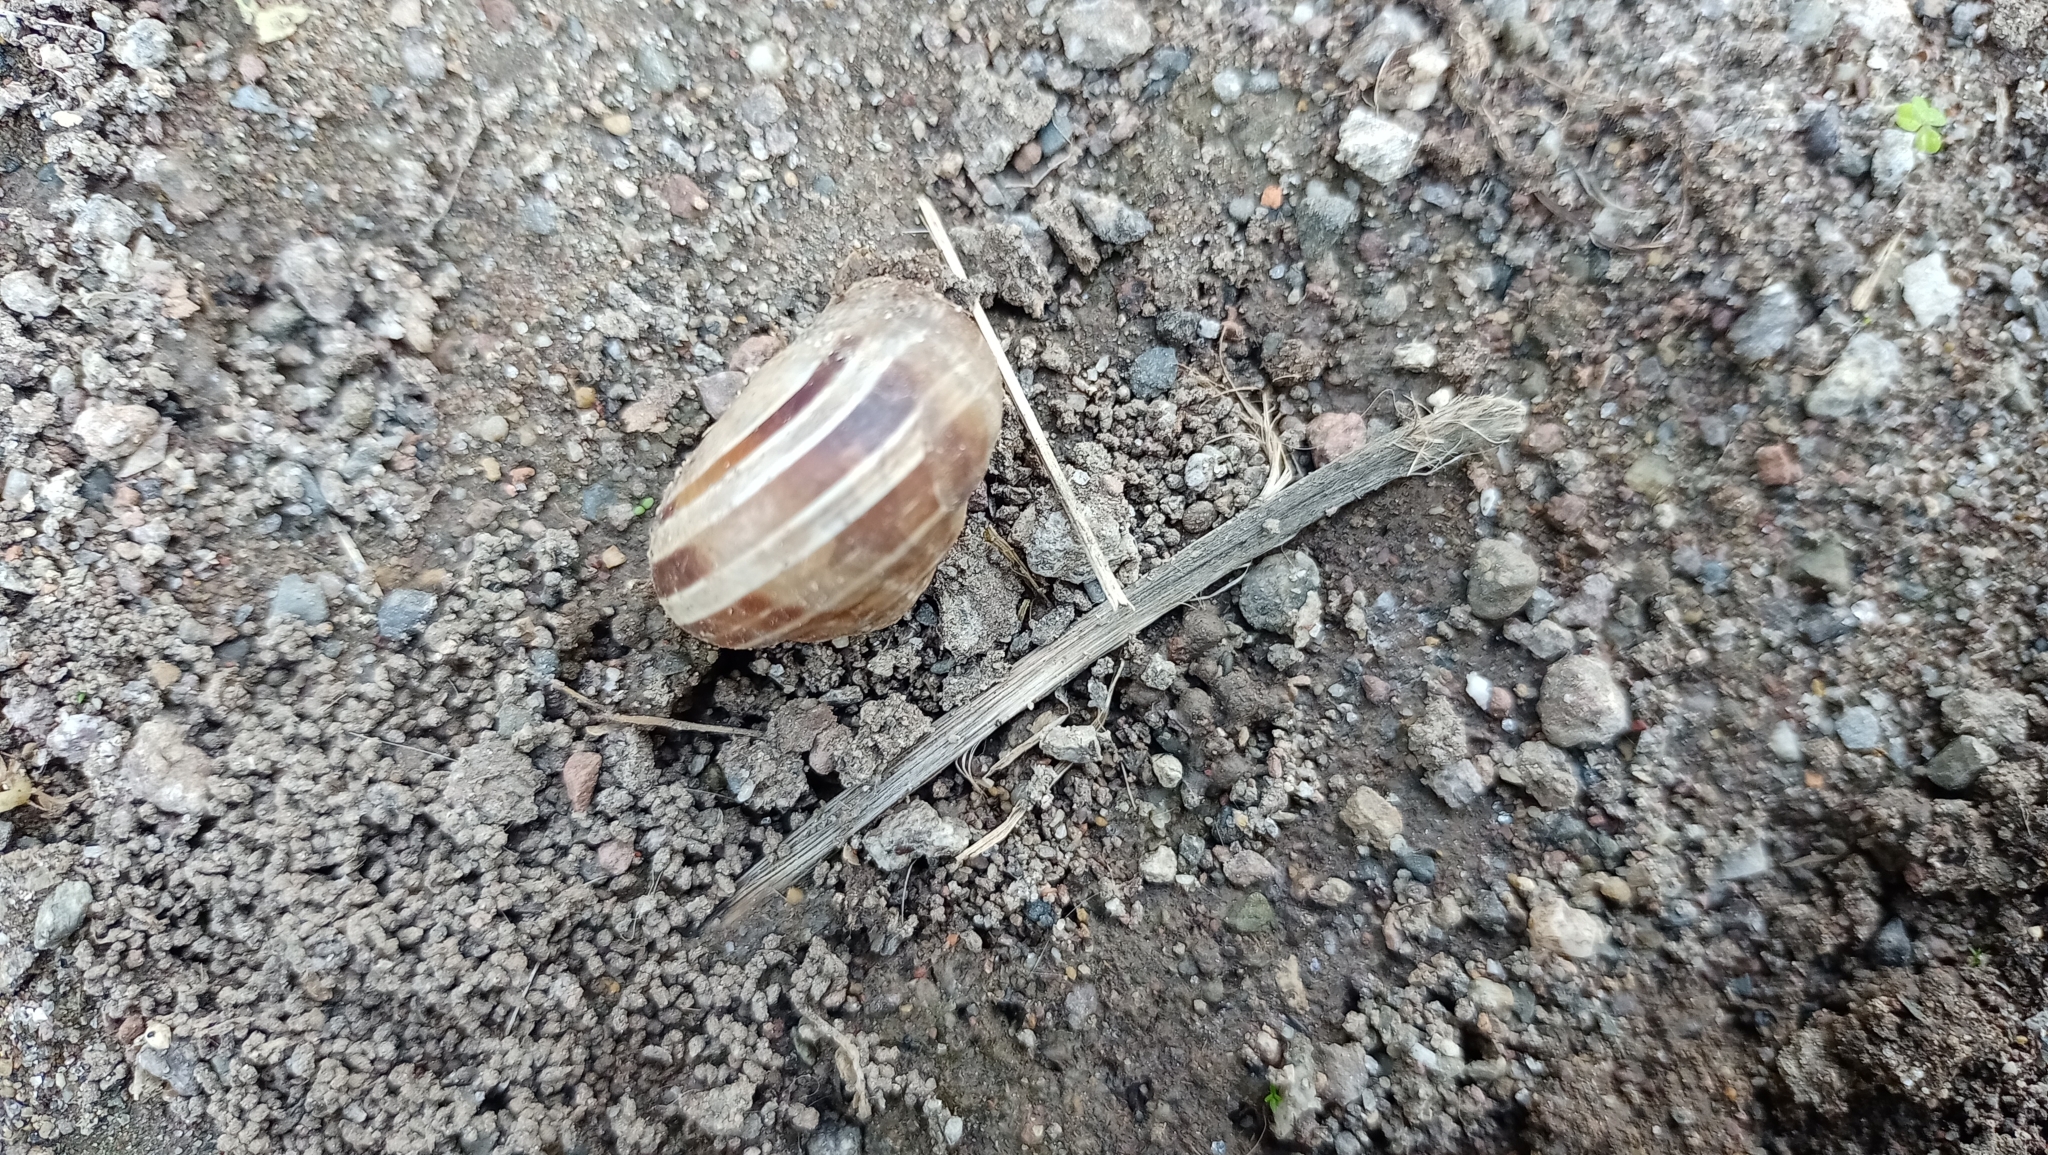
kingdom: Animalia
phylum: Mollusca
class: Gastropoda
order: Stylommatophora
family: Helicidae
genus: Eobania
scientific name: Eobania vermiculata
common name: Chocolateband snail
